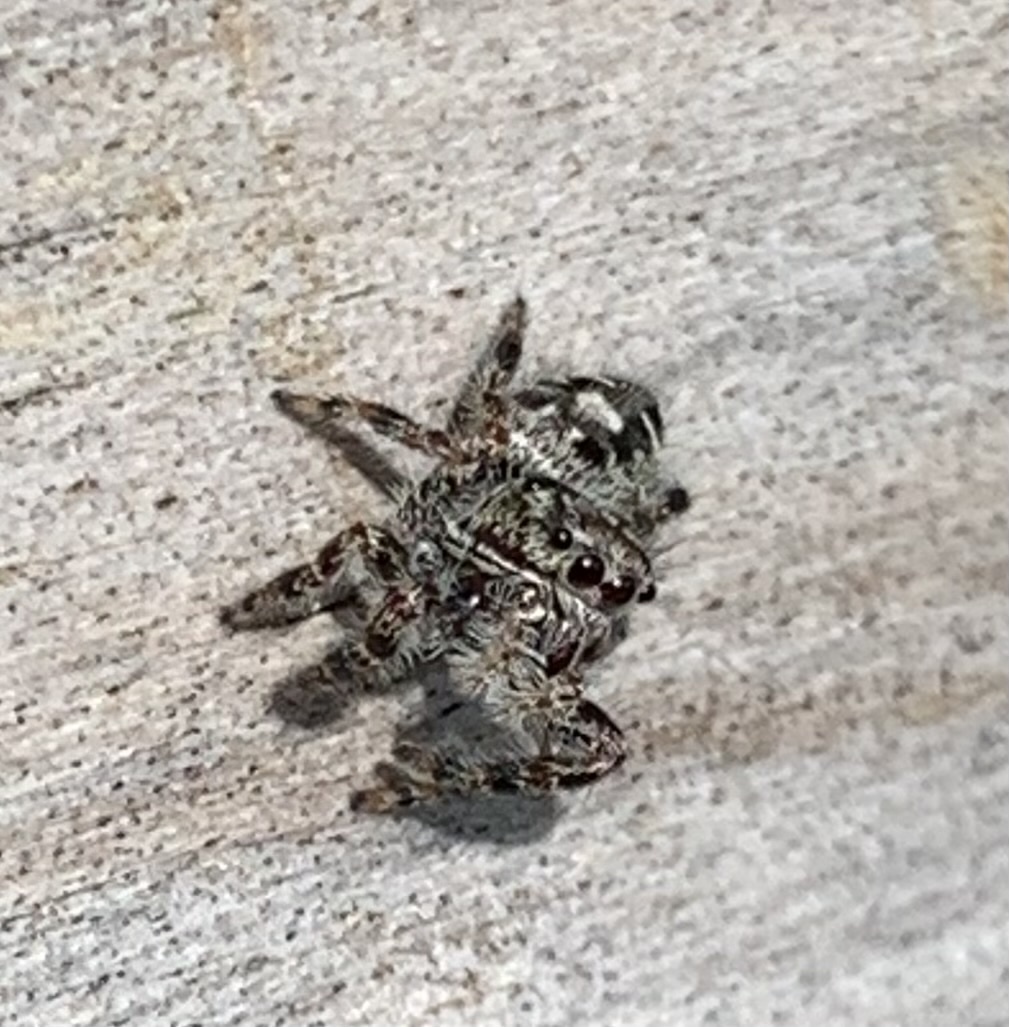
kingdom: Animalia
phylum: Arthropoda
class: Arachnida
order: Araneae
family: Salticidae
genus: Phidippus
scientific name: Phidippus putnami
